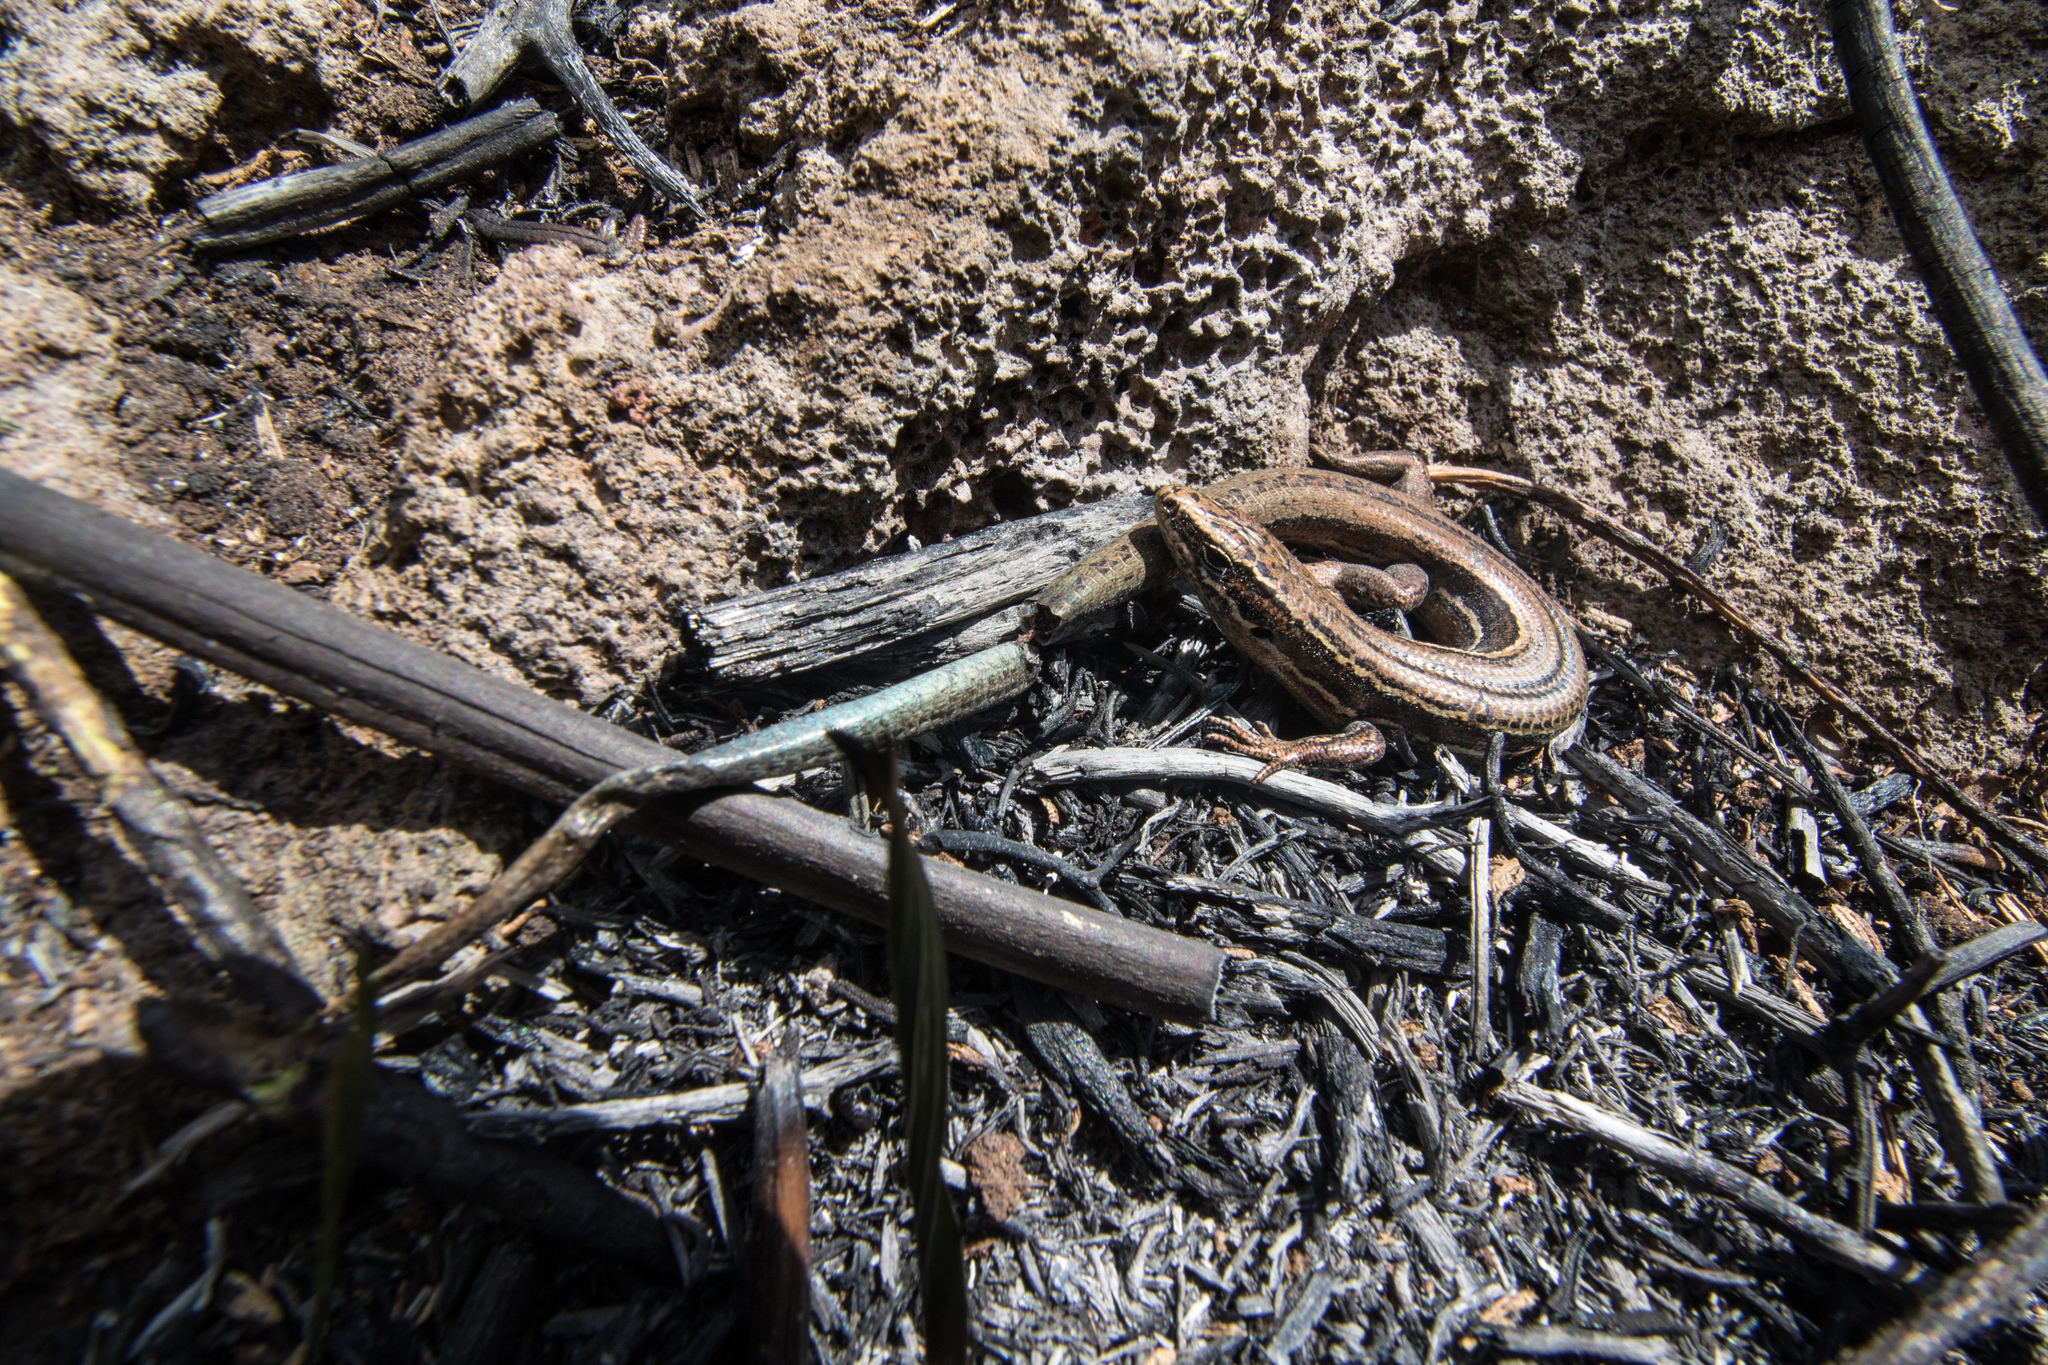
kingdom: Animalia
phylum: Chordata
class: Squamata
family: Scincidae
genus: Oligosoma
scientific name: Oligosoma moco
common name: Moco skink
